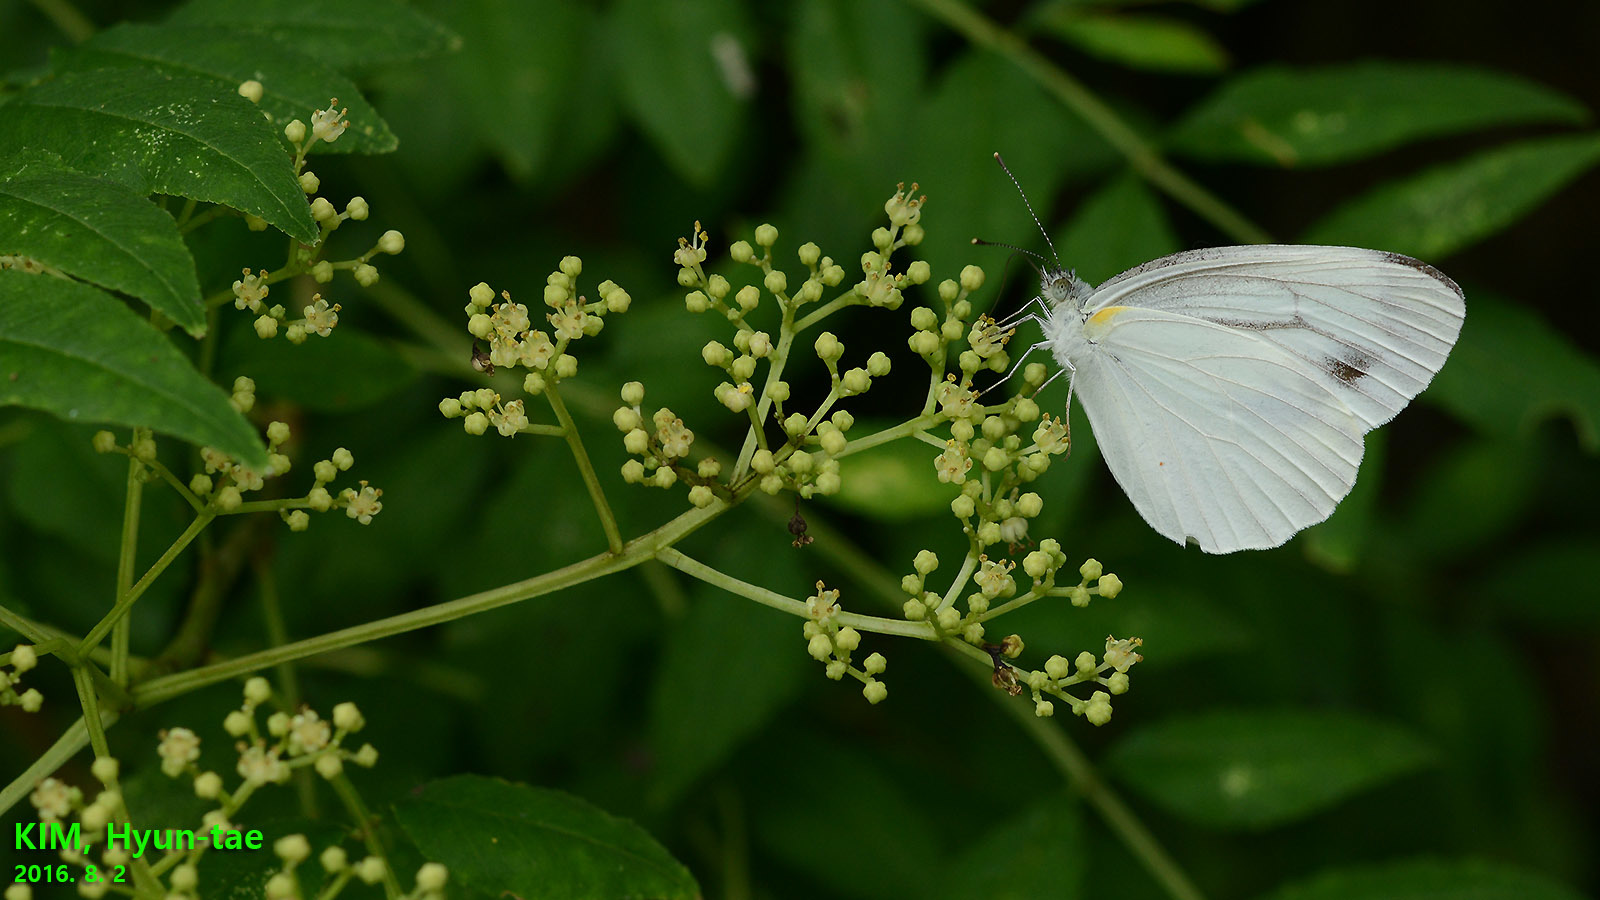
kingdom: Animalia
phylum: Arthropoda
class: Insecta
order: Lepidoptera
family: Pieridae
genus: Pieris
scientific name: Pieris melete
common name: Asian green-veined white
